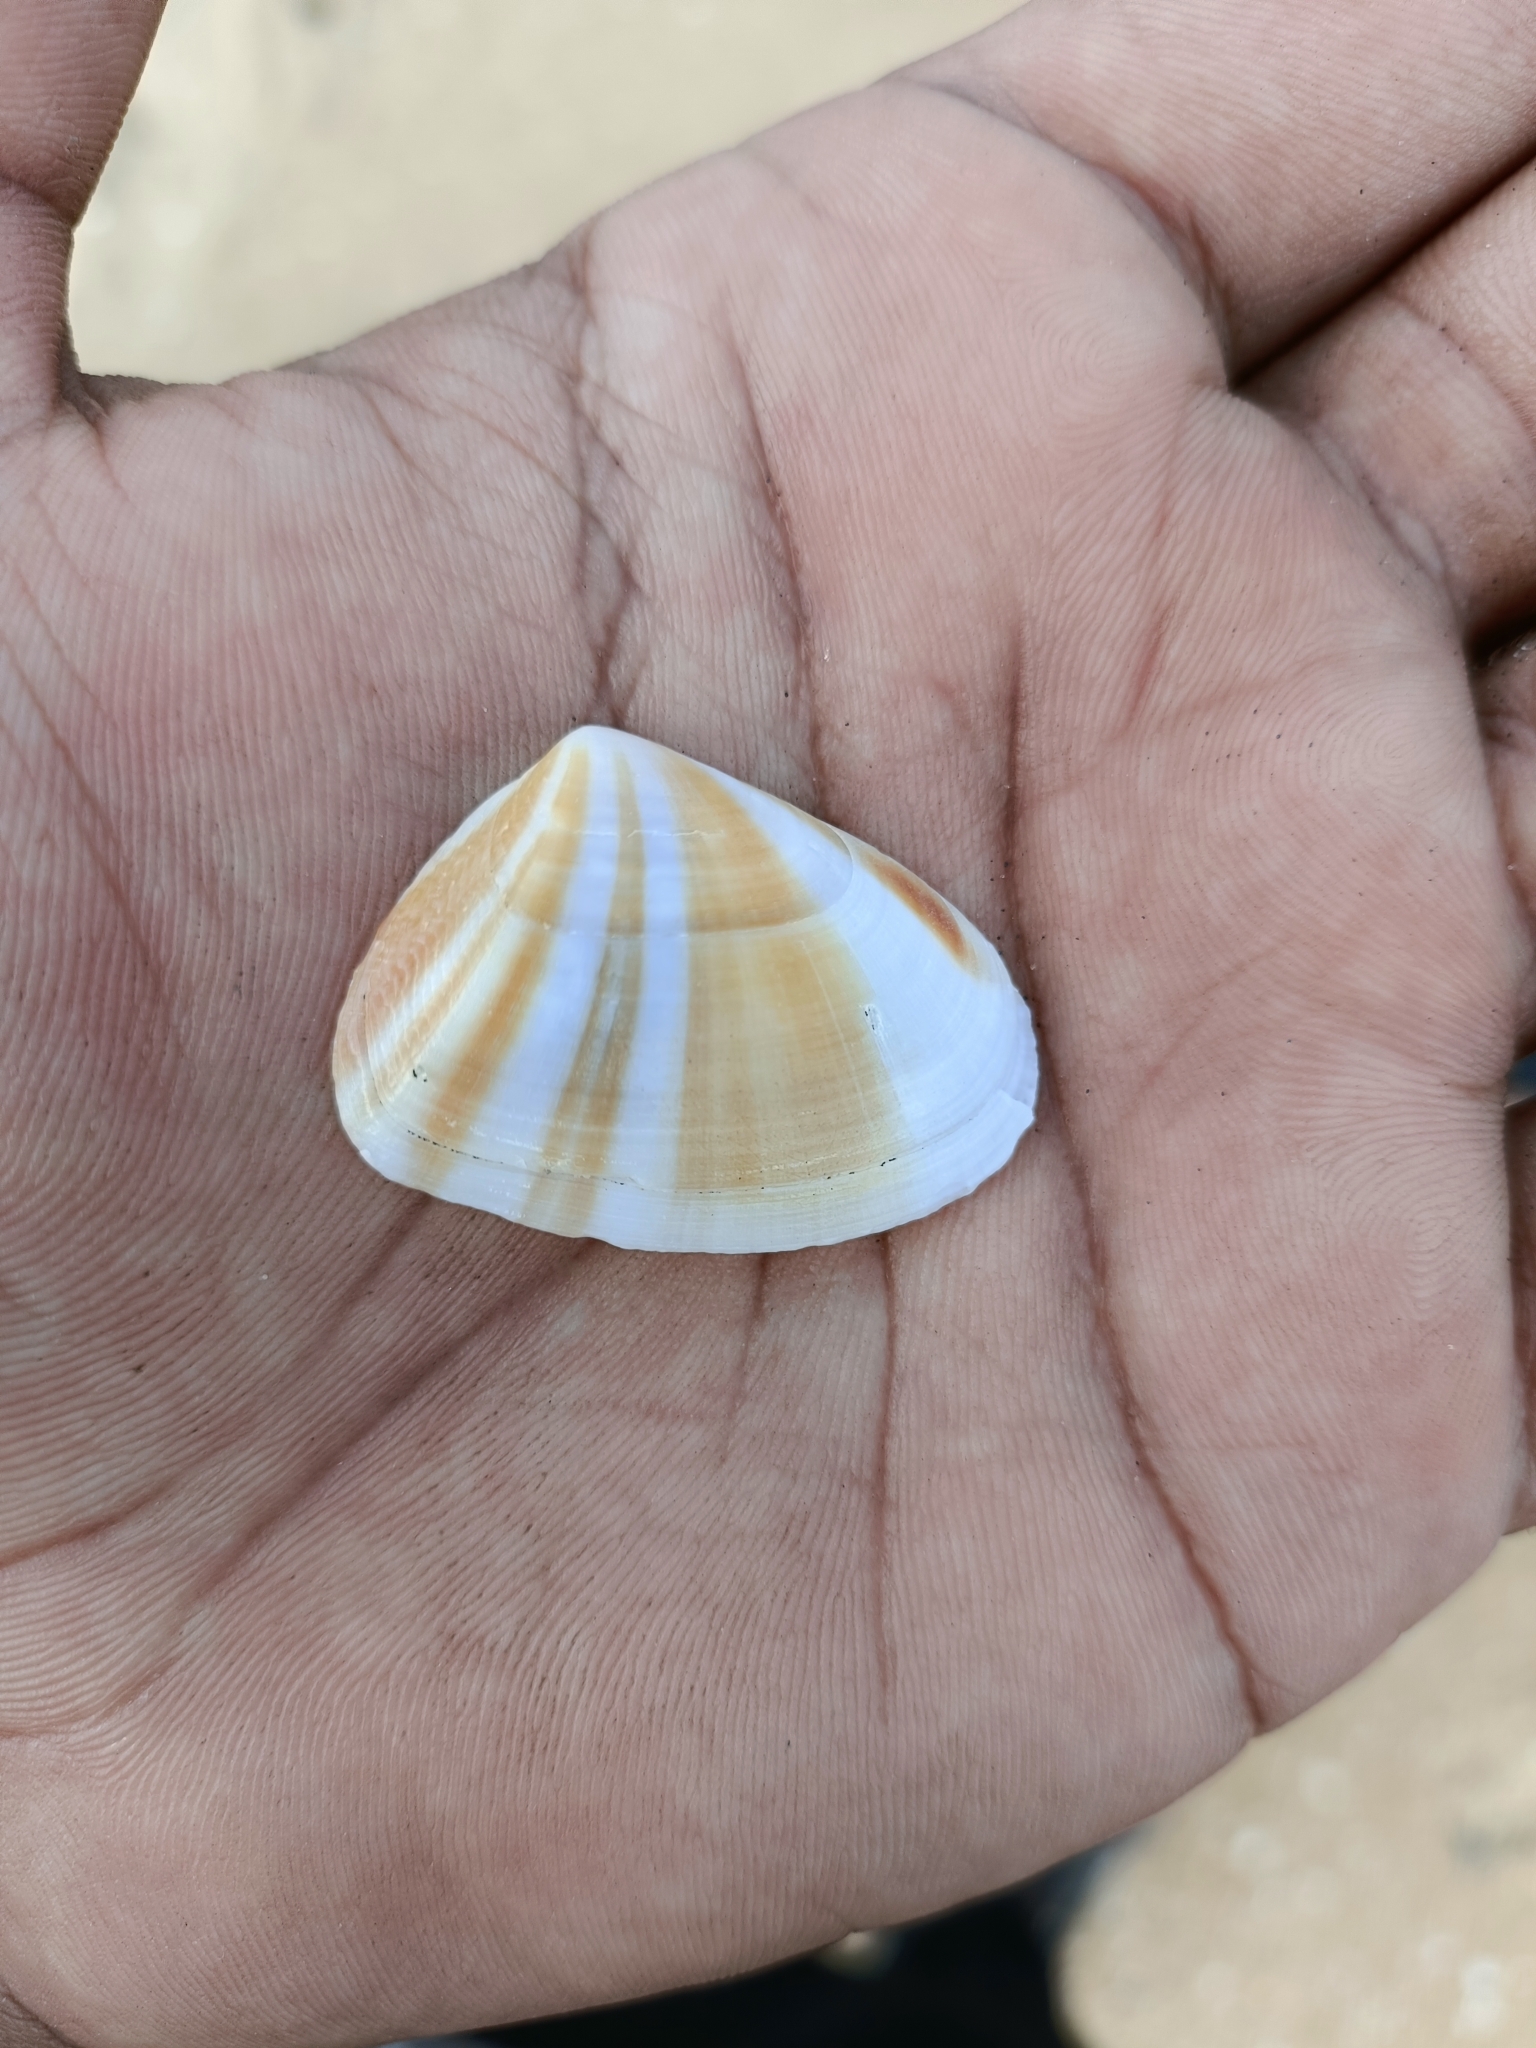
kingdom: Animalia
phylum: Mollusca
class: Bivalvia
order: Cardiida
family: Donacidae
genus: Latona
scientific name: Latona cuneata
